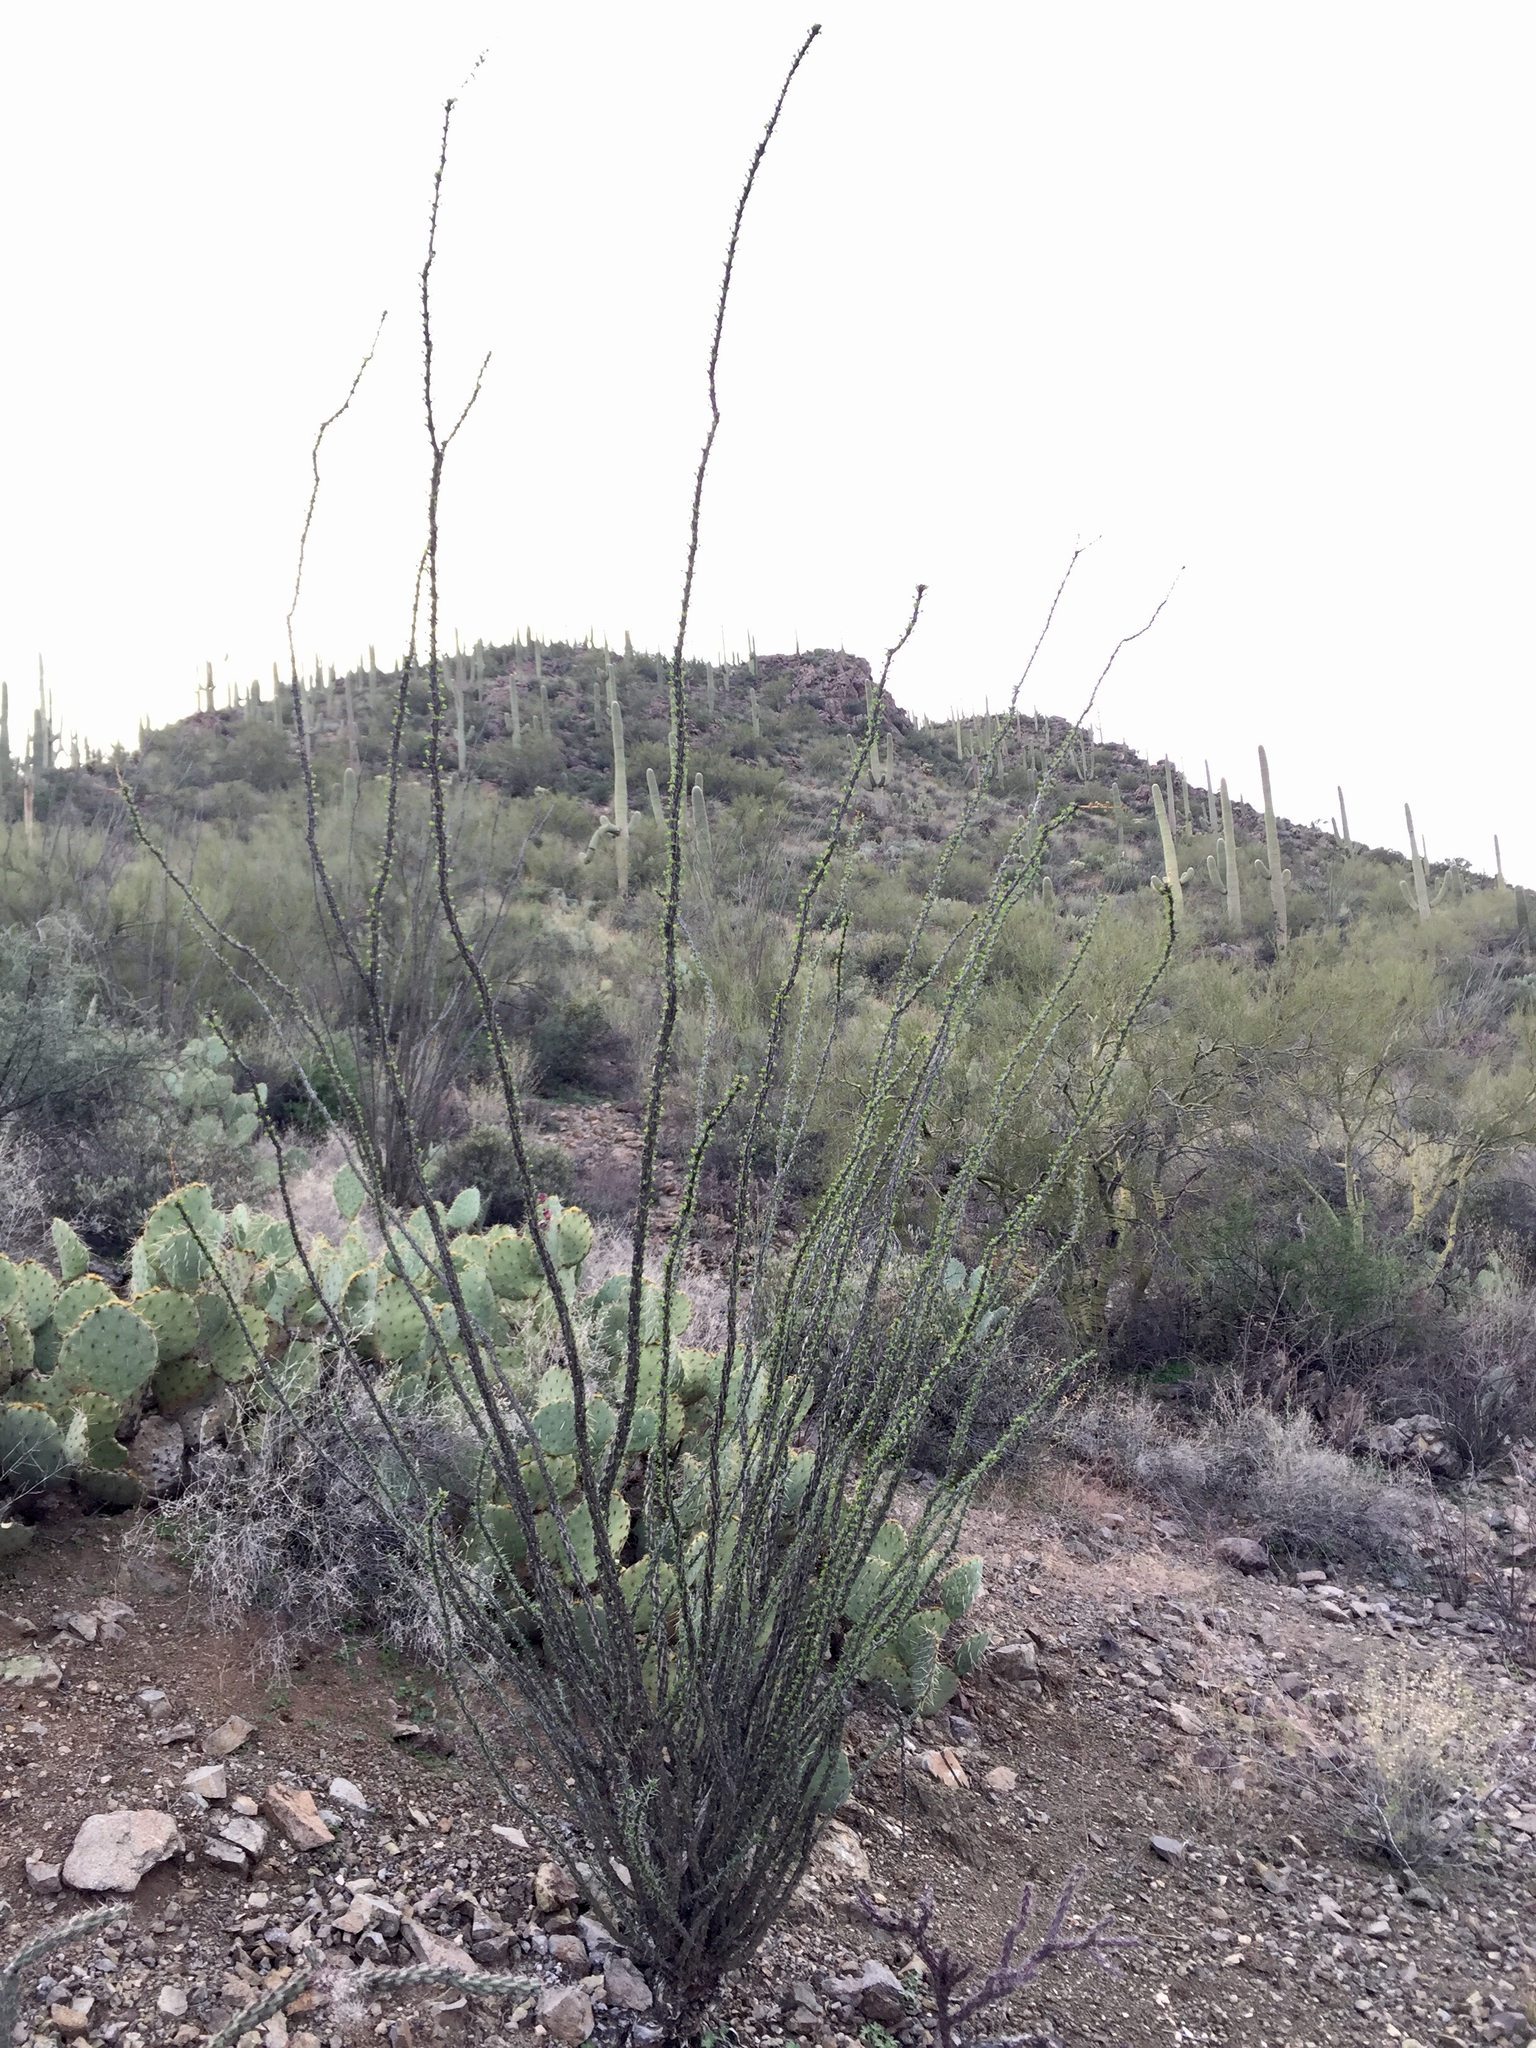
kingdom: Plantae
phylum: Tracheophyta
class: Magnoliopsida
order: Ericales
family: Fouquieriaceae
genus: Fouquieria
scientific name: Fouquieria splendens
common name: Vine-cactus
